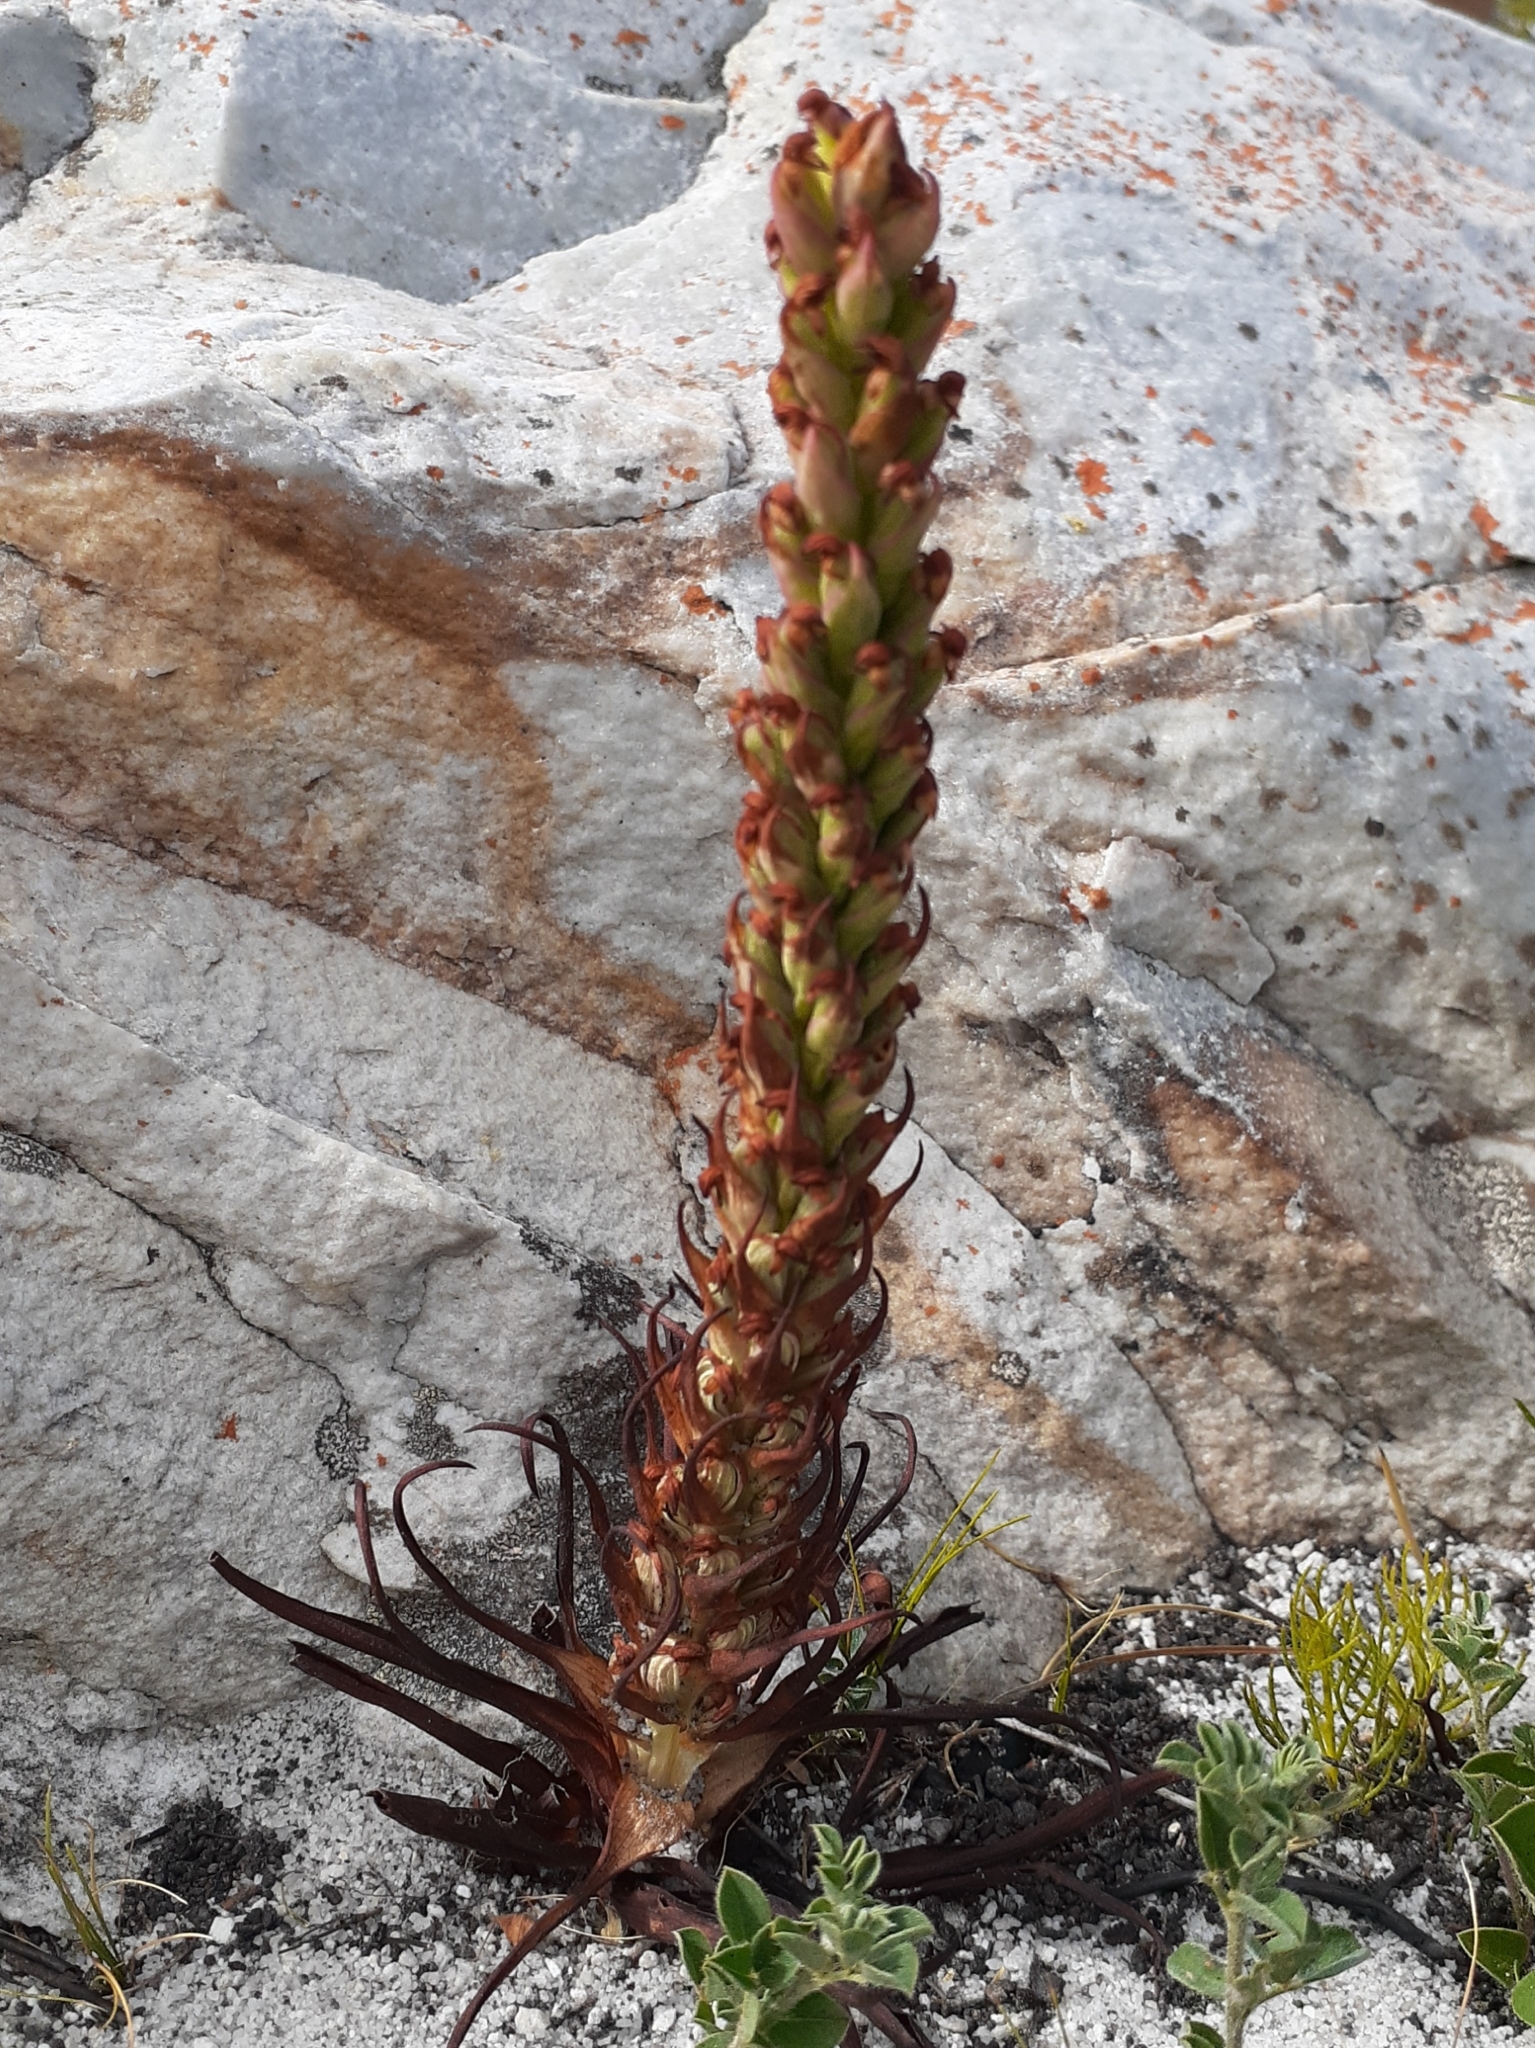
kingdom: Plantae
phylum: Tracheophyta
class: Liliopsida
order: Asparagales
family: Orchidaceae
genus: Disa
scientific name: Disa bracteata
